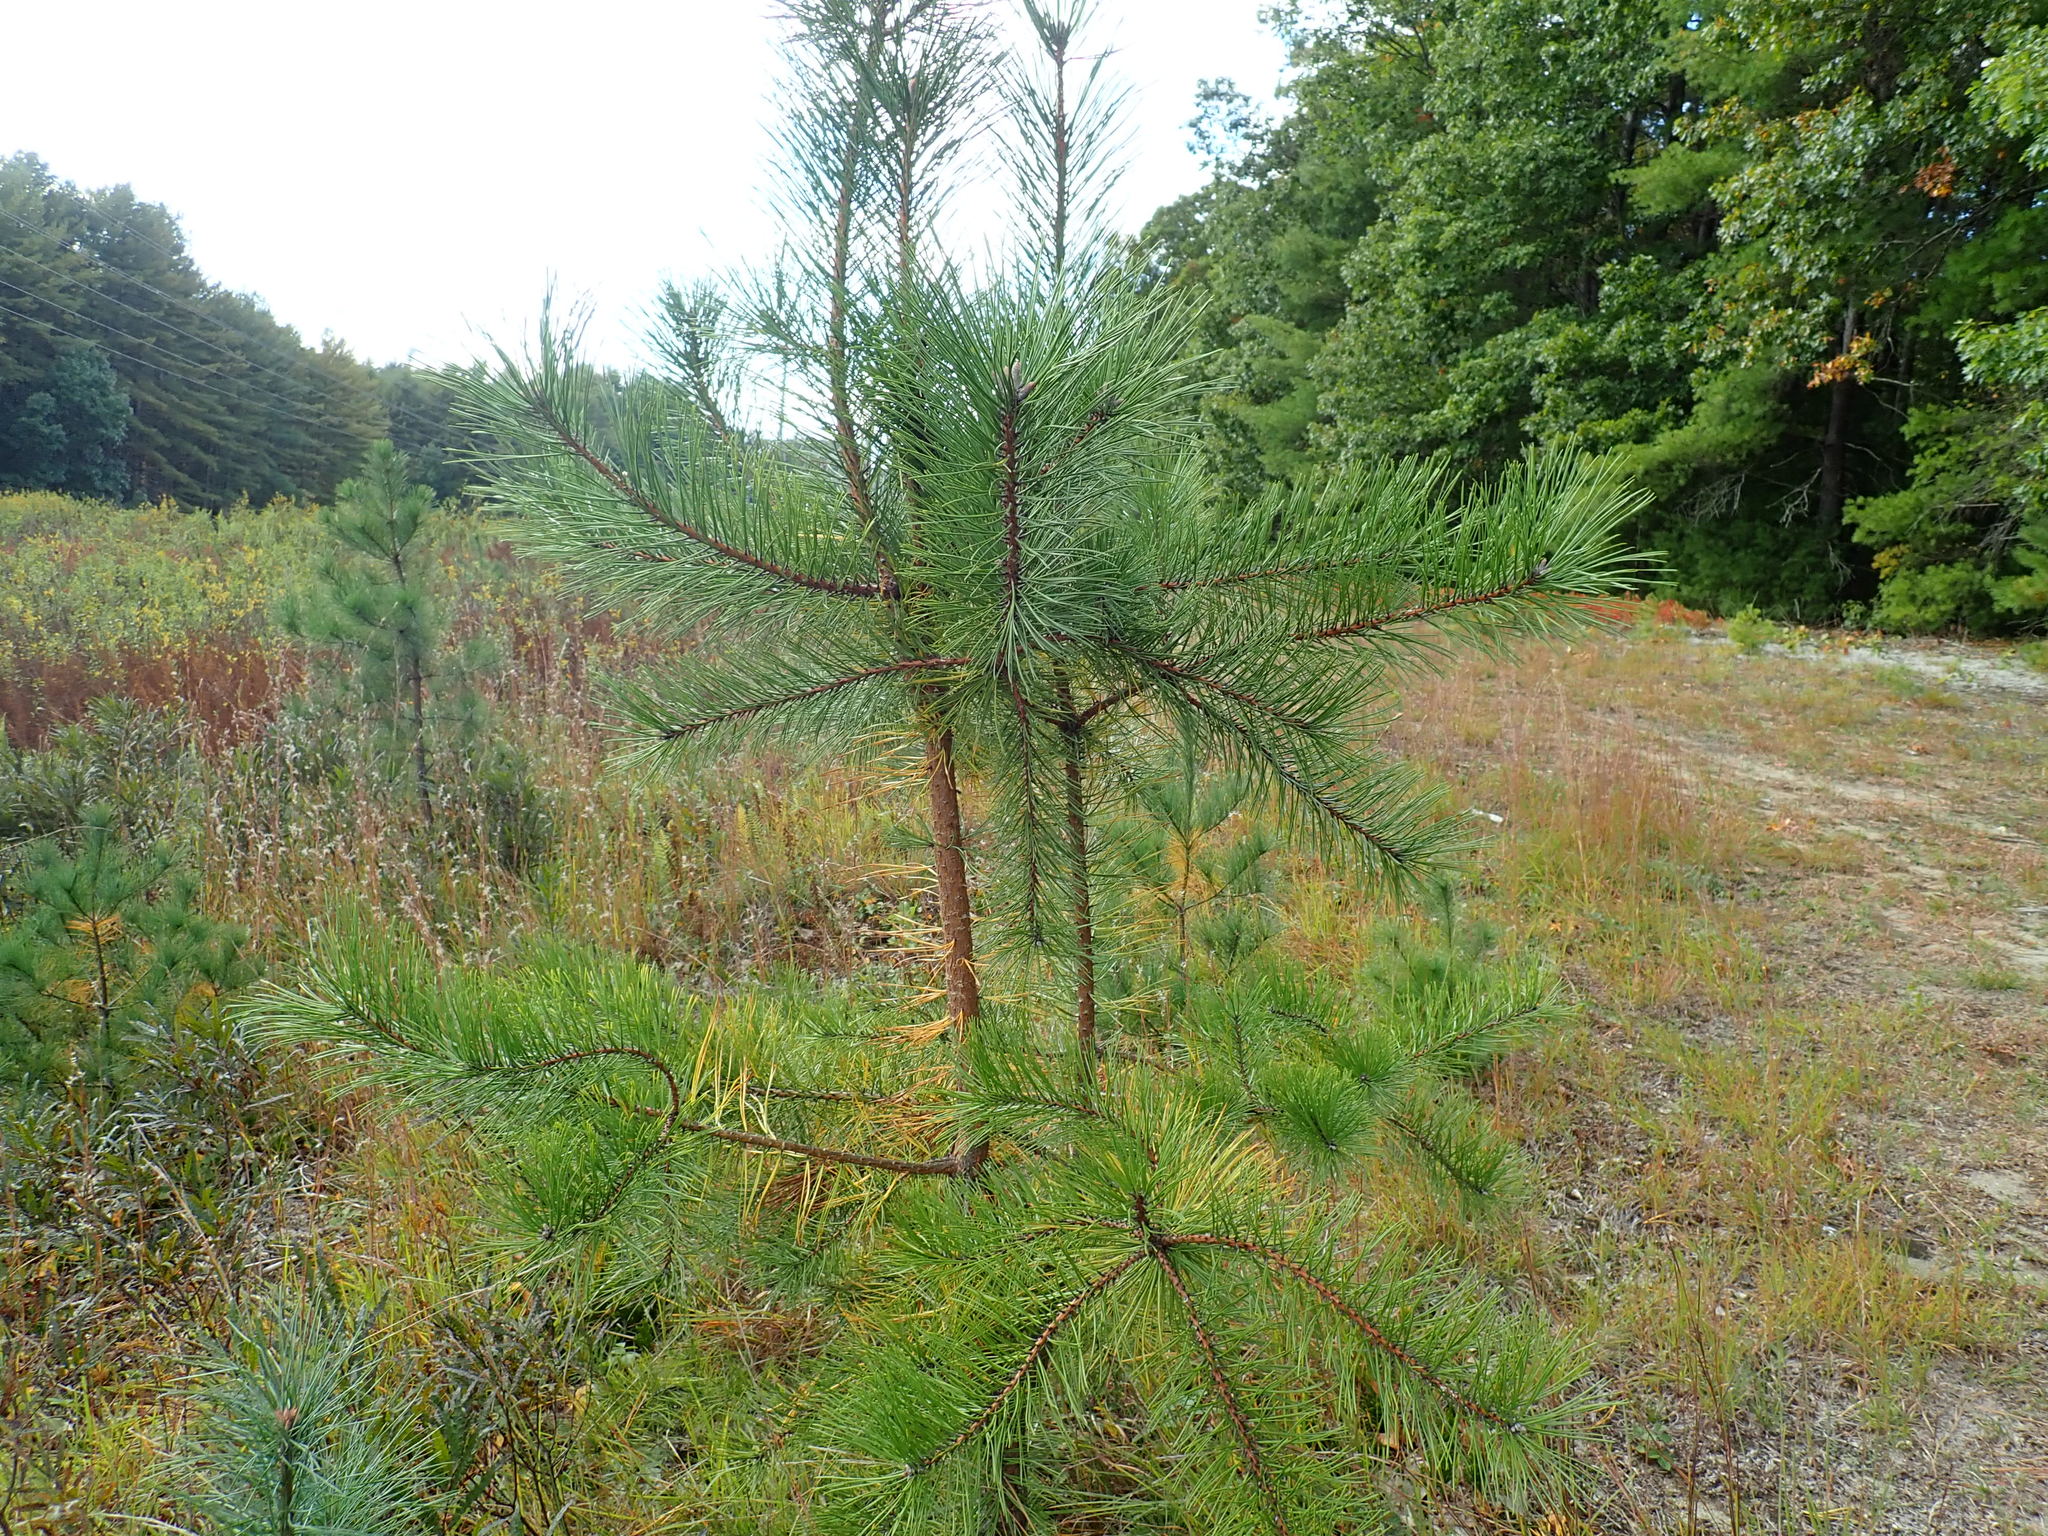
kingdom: Plantae
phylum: Tracheophyta
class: Pinopsida
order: Pinales
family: Pinaceae
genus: Pinus
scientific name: Pinus rigida
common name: Pitch pine
